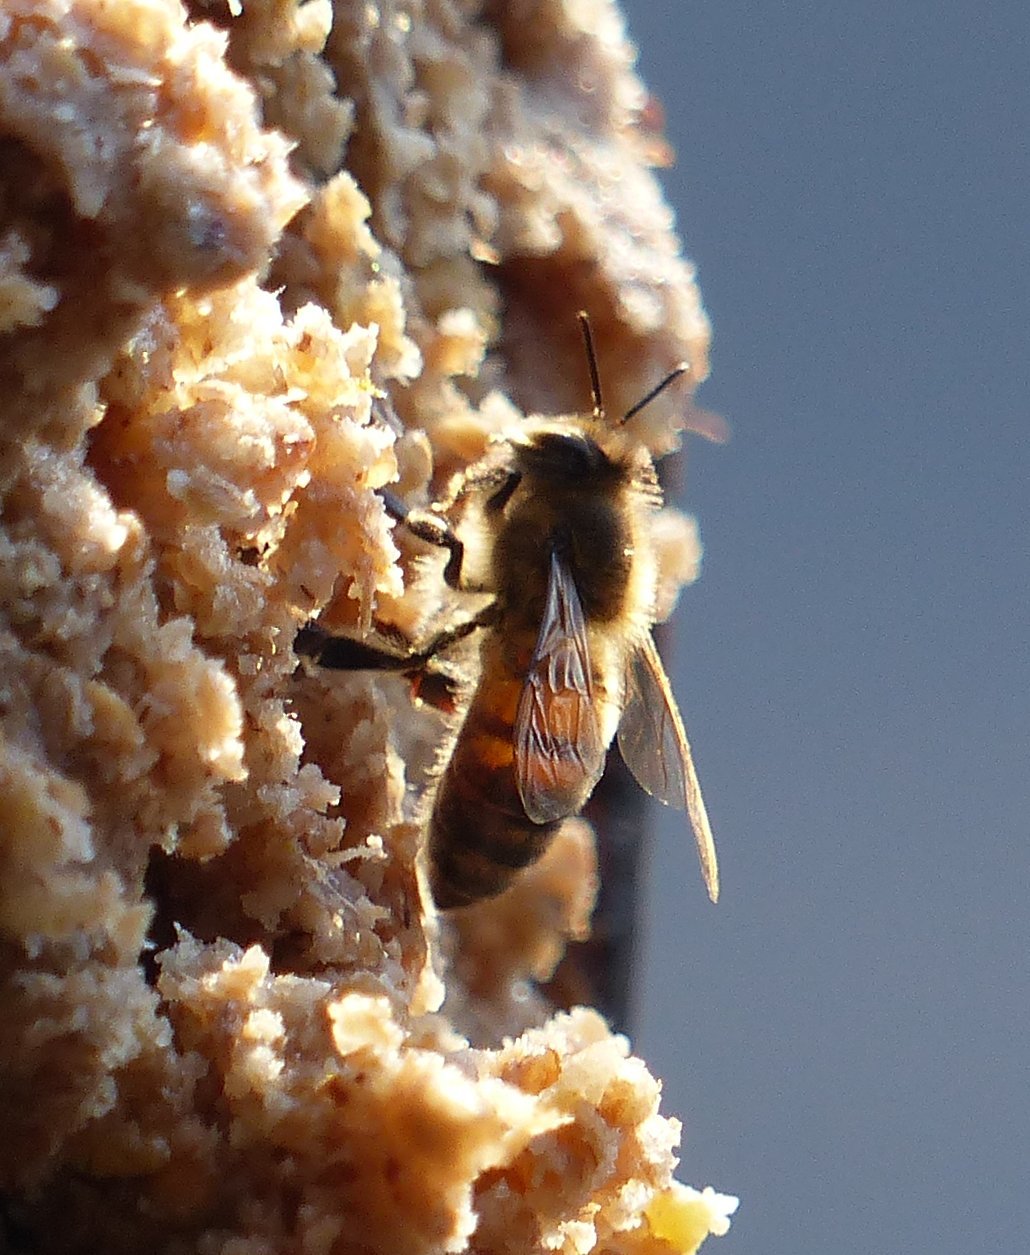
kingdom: Animalia
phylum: Arthropoda
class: Insecta
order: Hymenoptera
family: Apidae
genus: Apis
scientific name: Apis mellifera
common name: Honey bee
